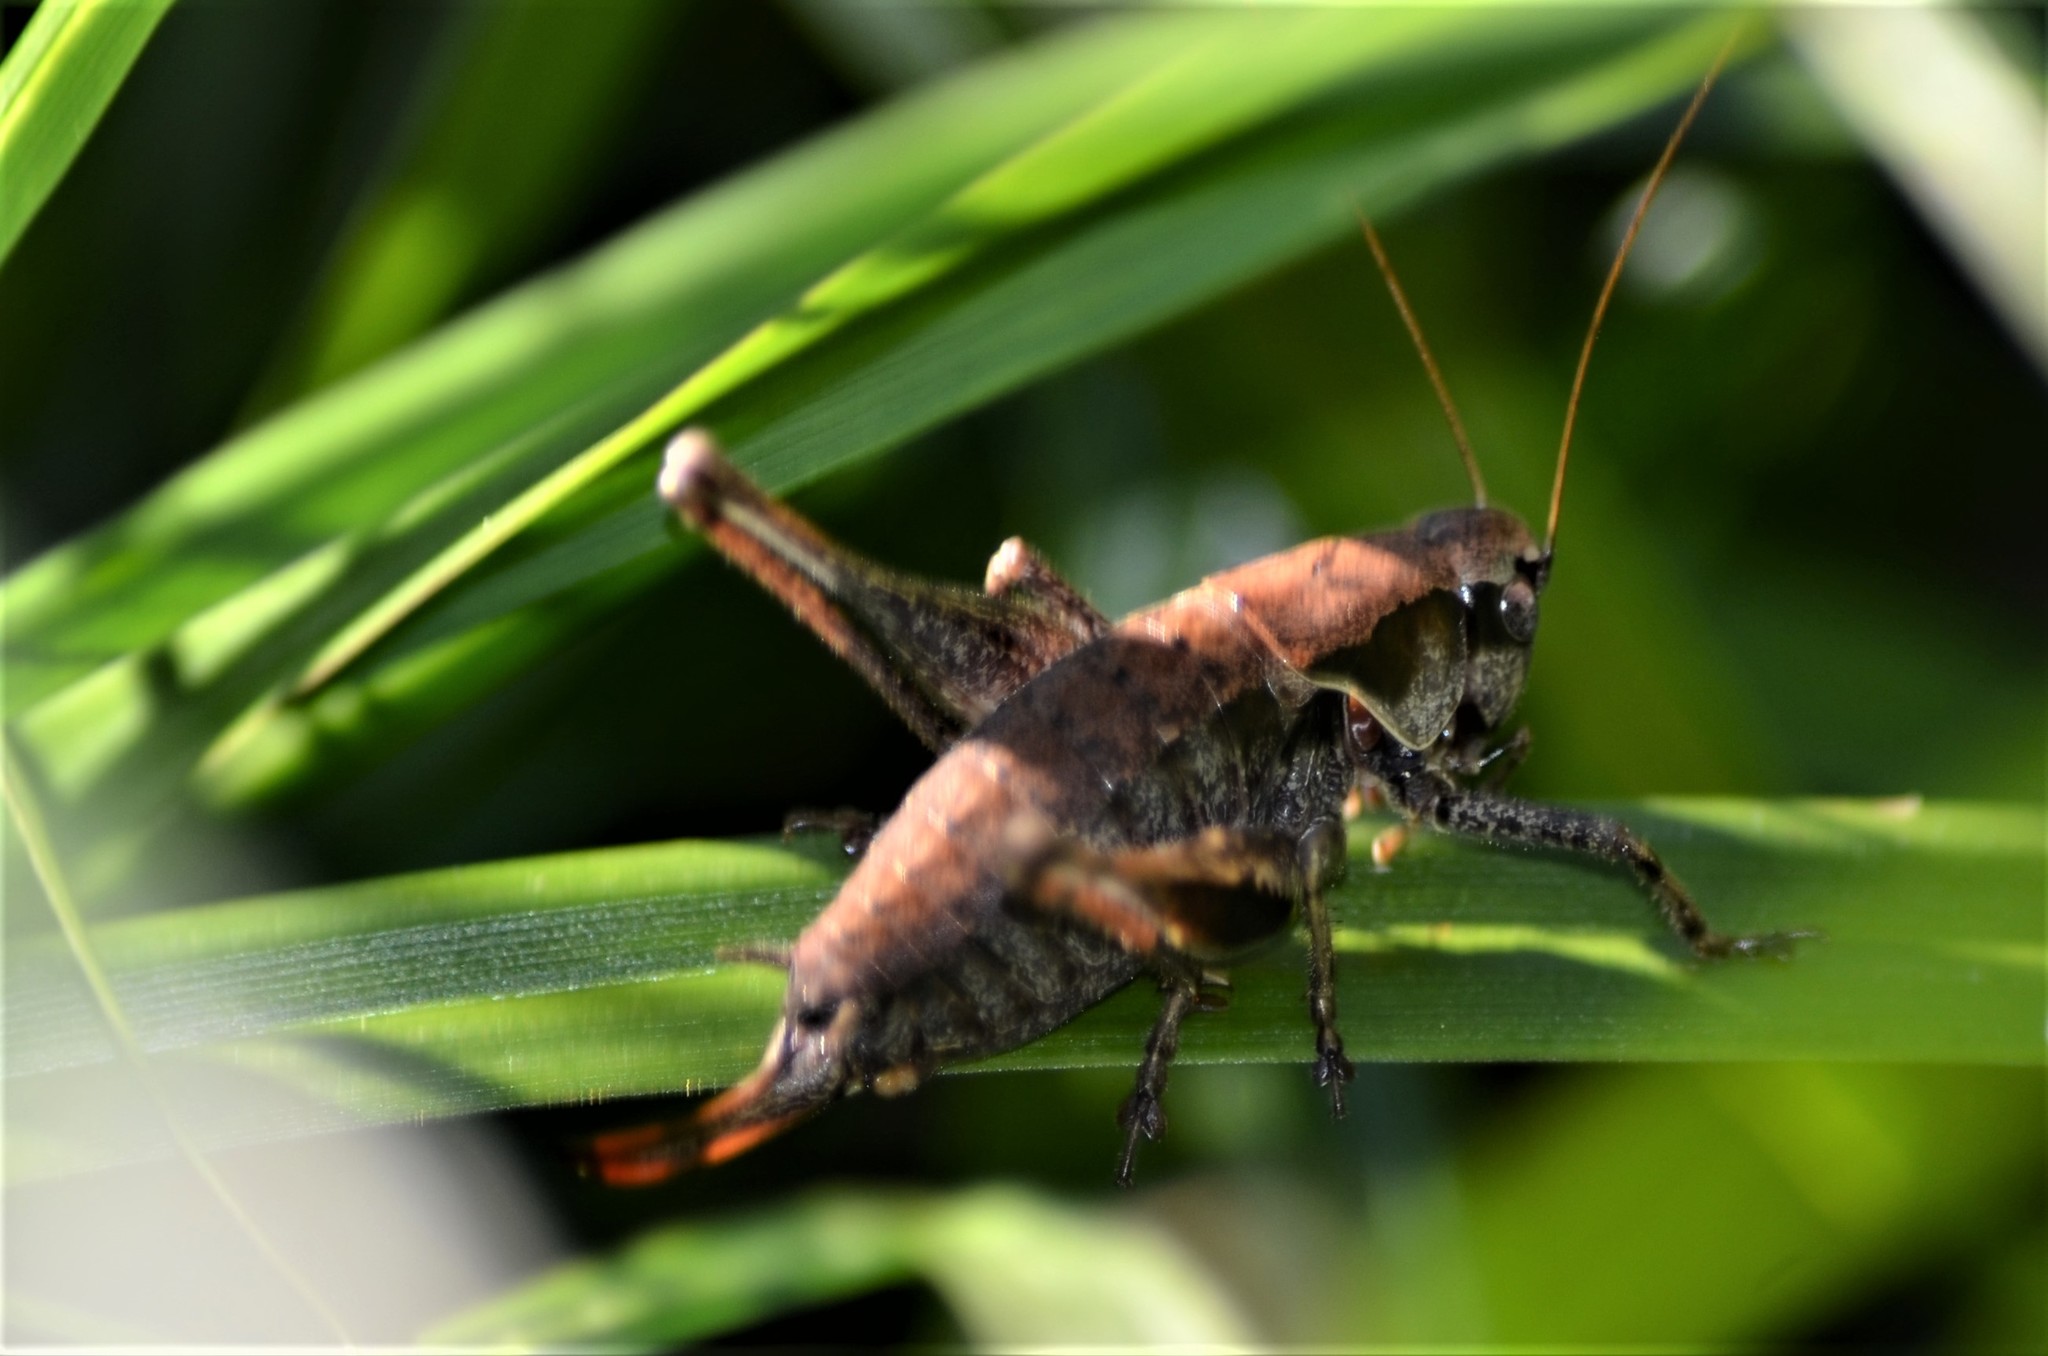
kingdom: Animalia
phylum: Arthropoda
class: Insecta
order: Orthoptera
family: Tettigoniidae
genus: Pholidoptera
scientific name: Pholidoptera griseoaptera
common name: Dark bush-cricket
